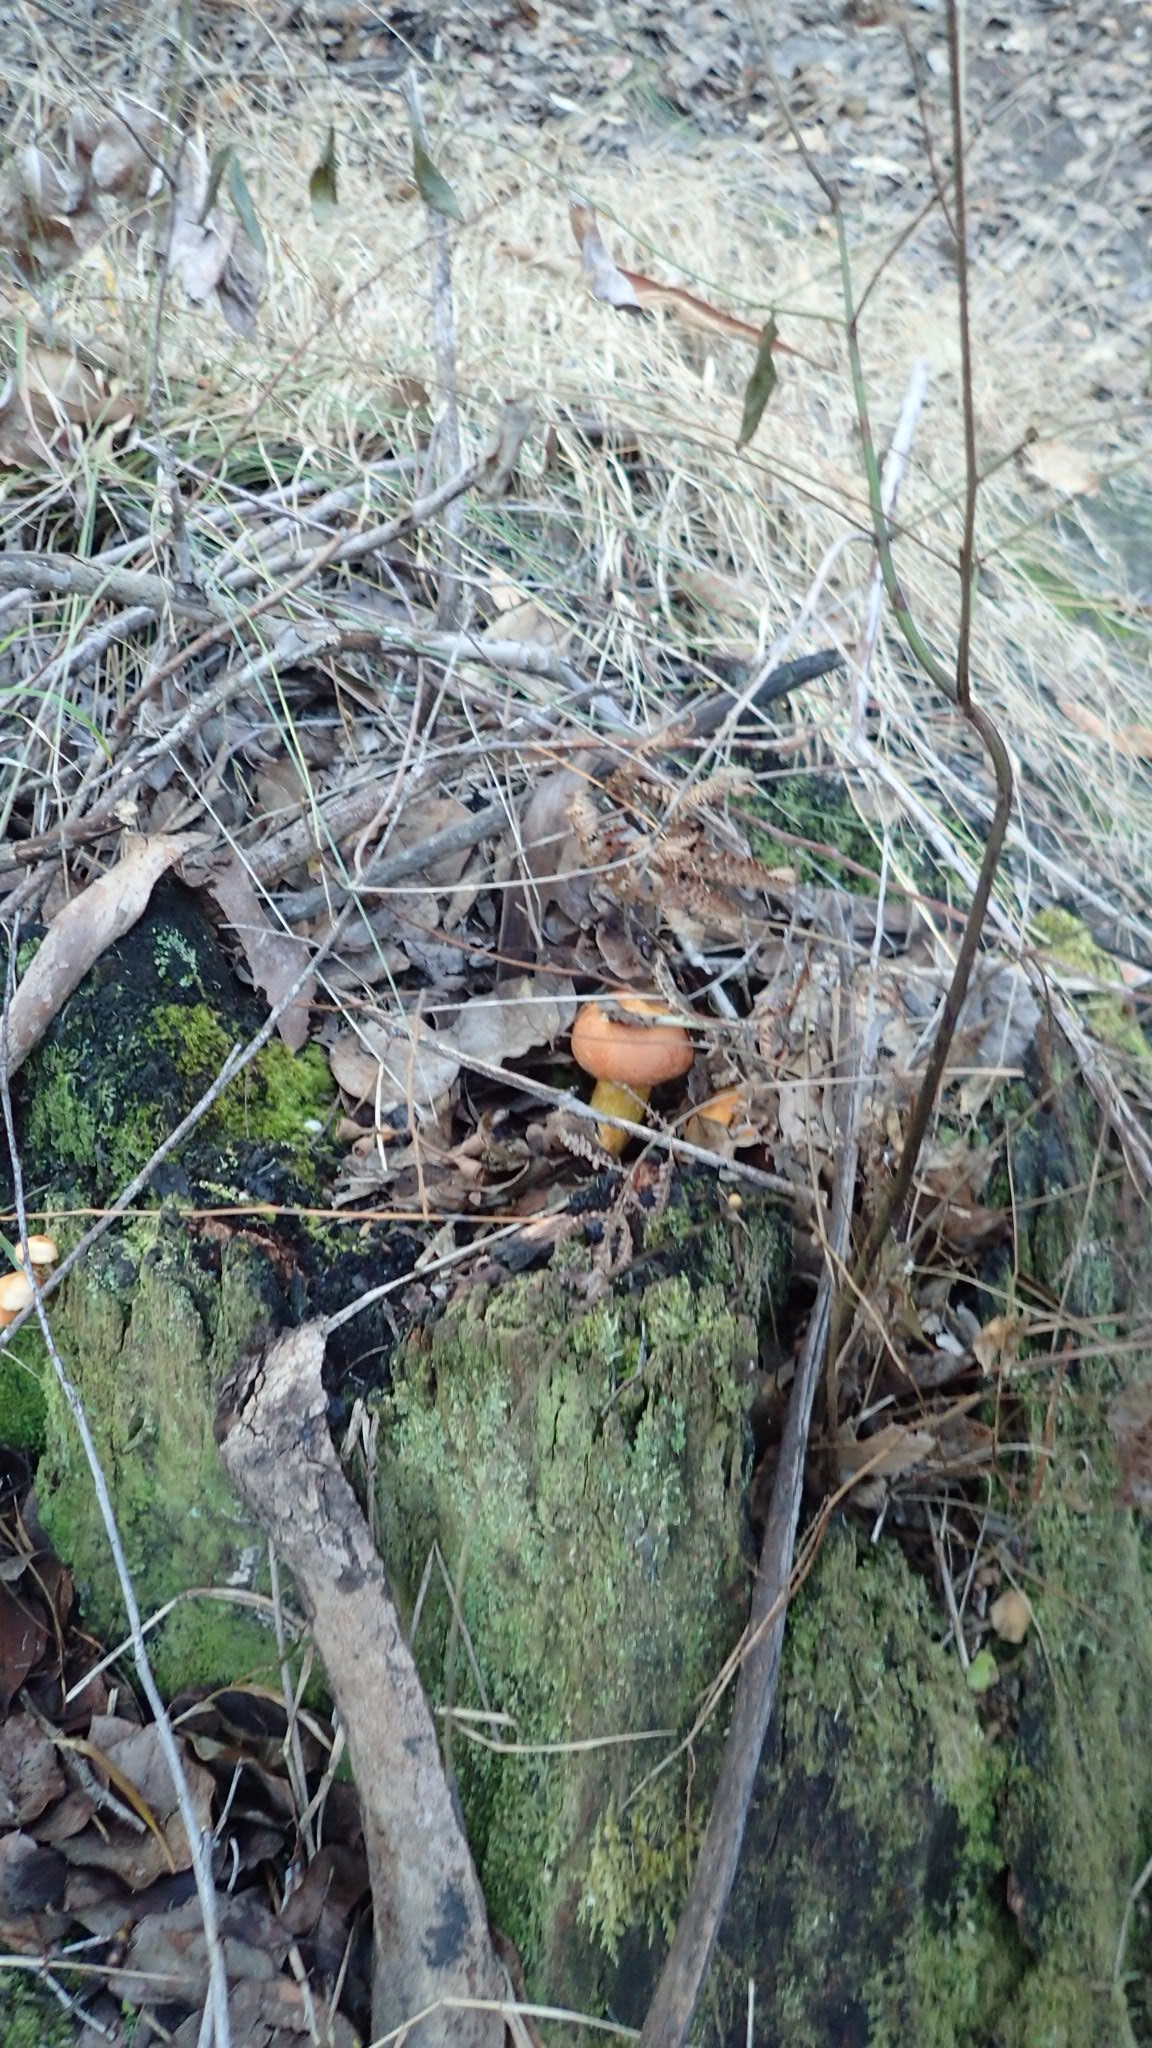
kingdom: Fungi
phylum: Basidiomycota
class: Agaricomycetes
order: Agaricales
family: Hymenogastraceae
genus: Gymnopilus
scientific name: Gymnopilus junonius
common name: Spectacular rustgill
